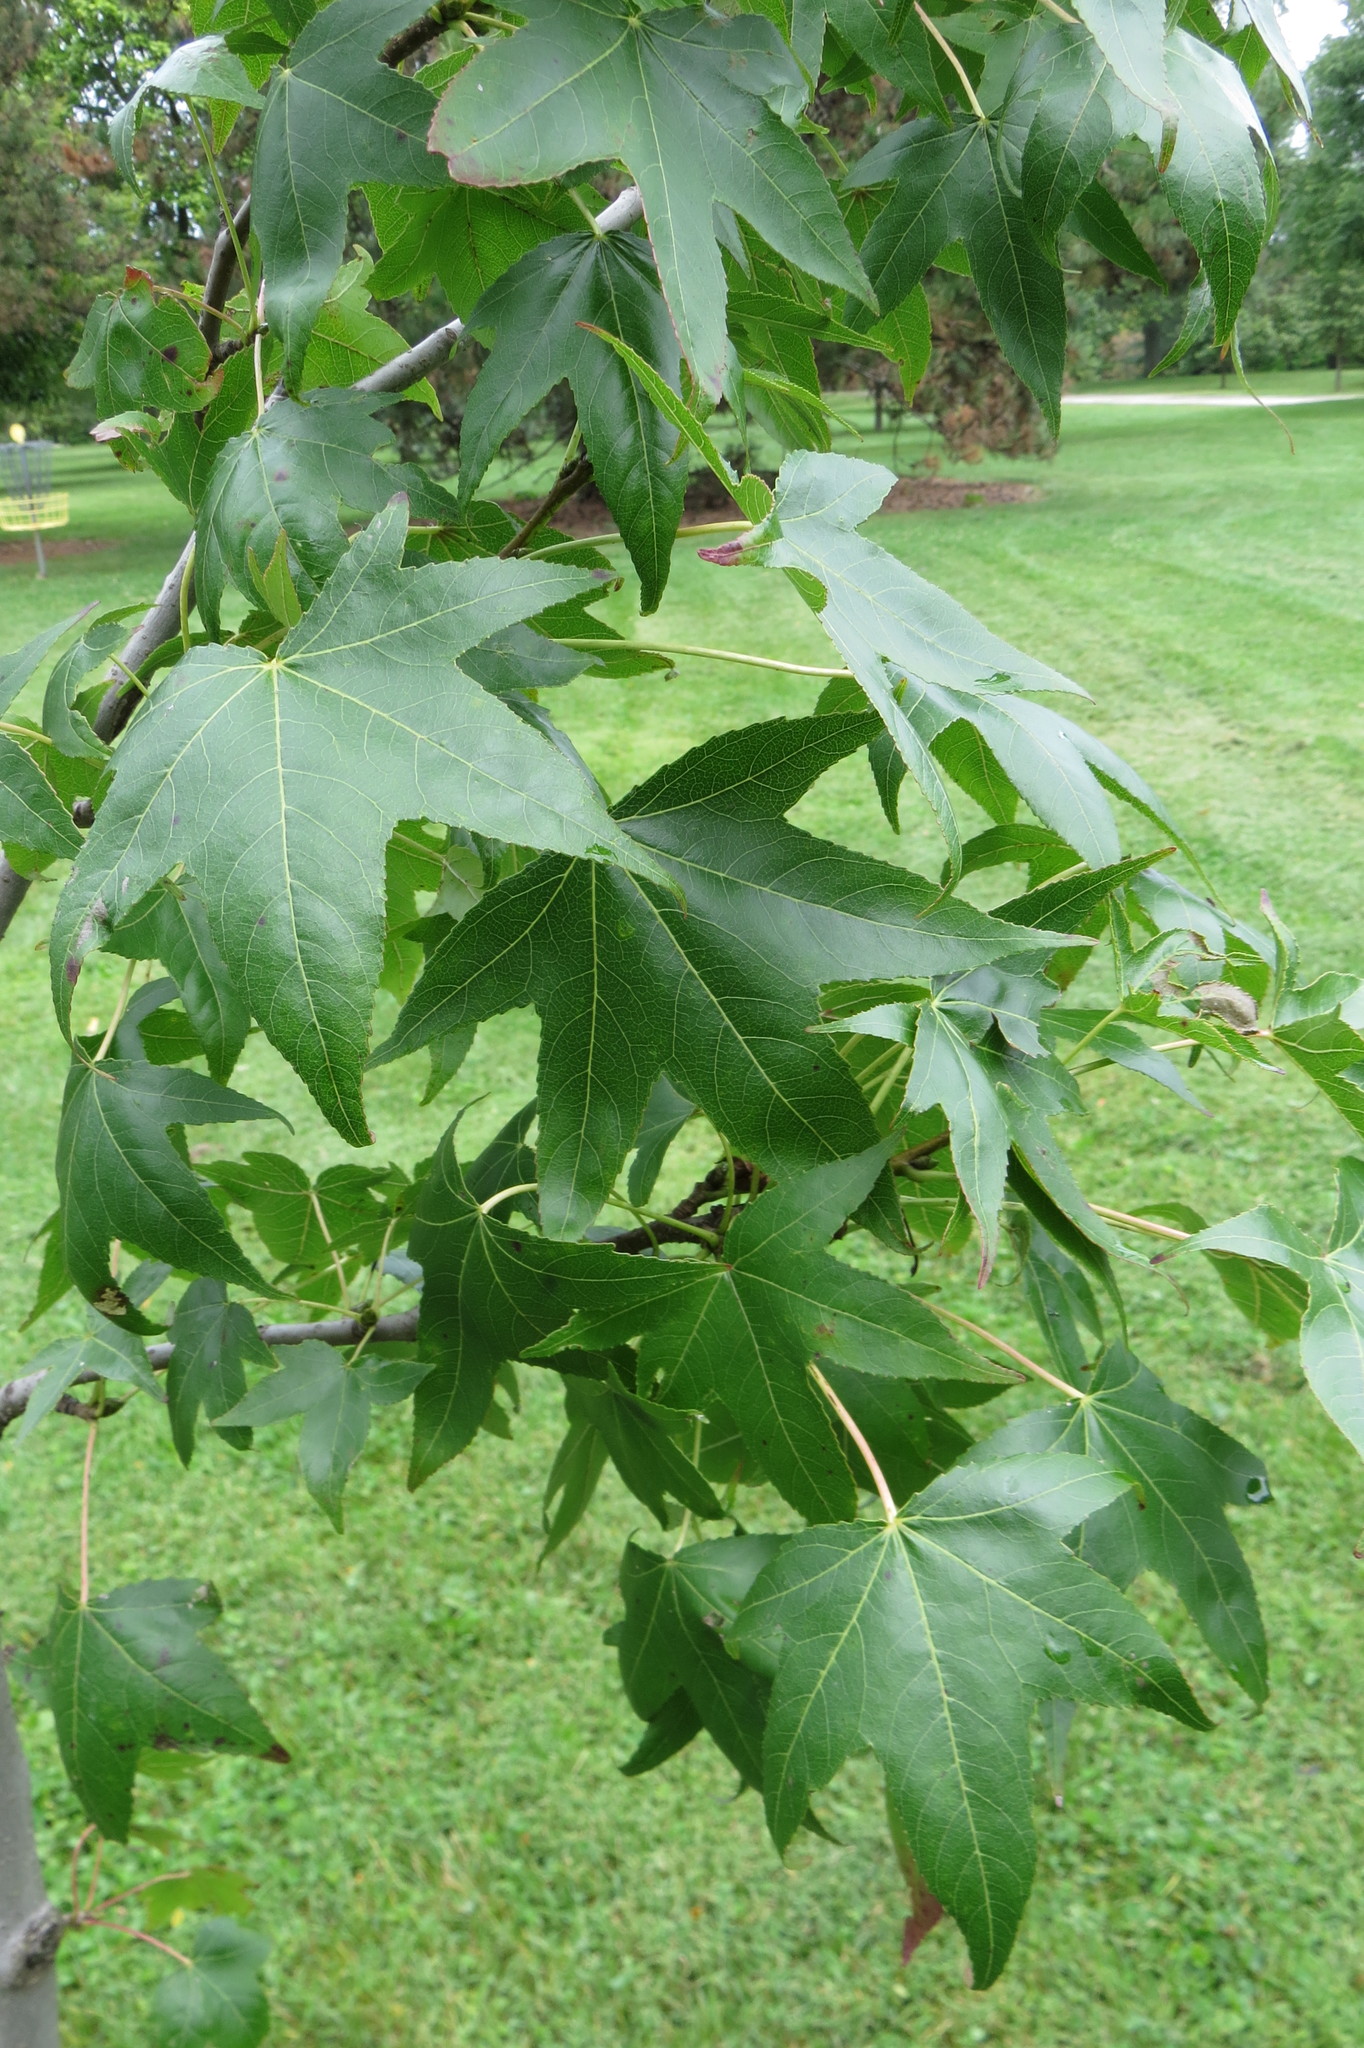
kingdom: Plantae
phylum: Tracheophyta
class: Magnoliopsida
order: Saxifragales
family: Altingiaceae
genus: Liquidambar
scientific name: Liquidambar styraciflua
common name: Sweet gum
